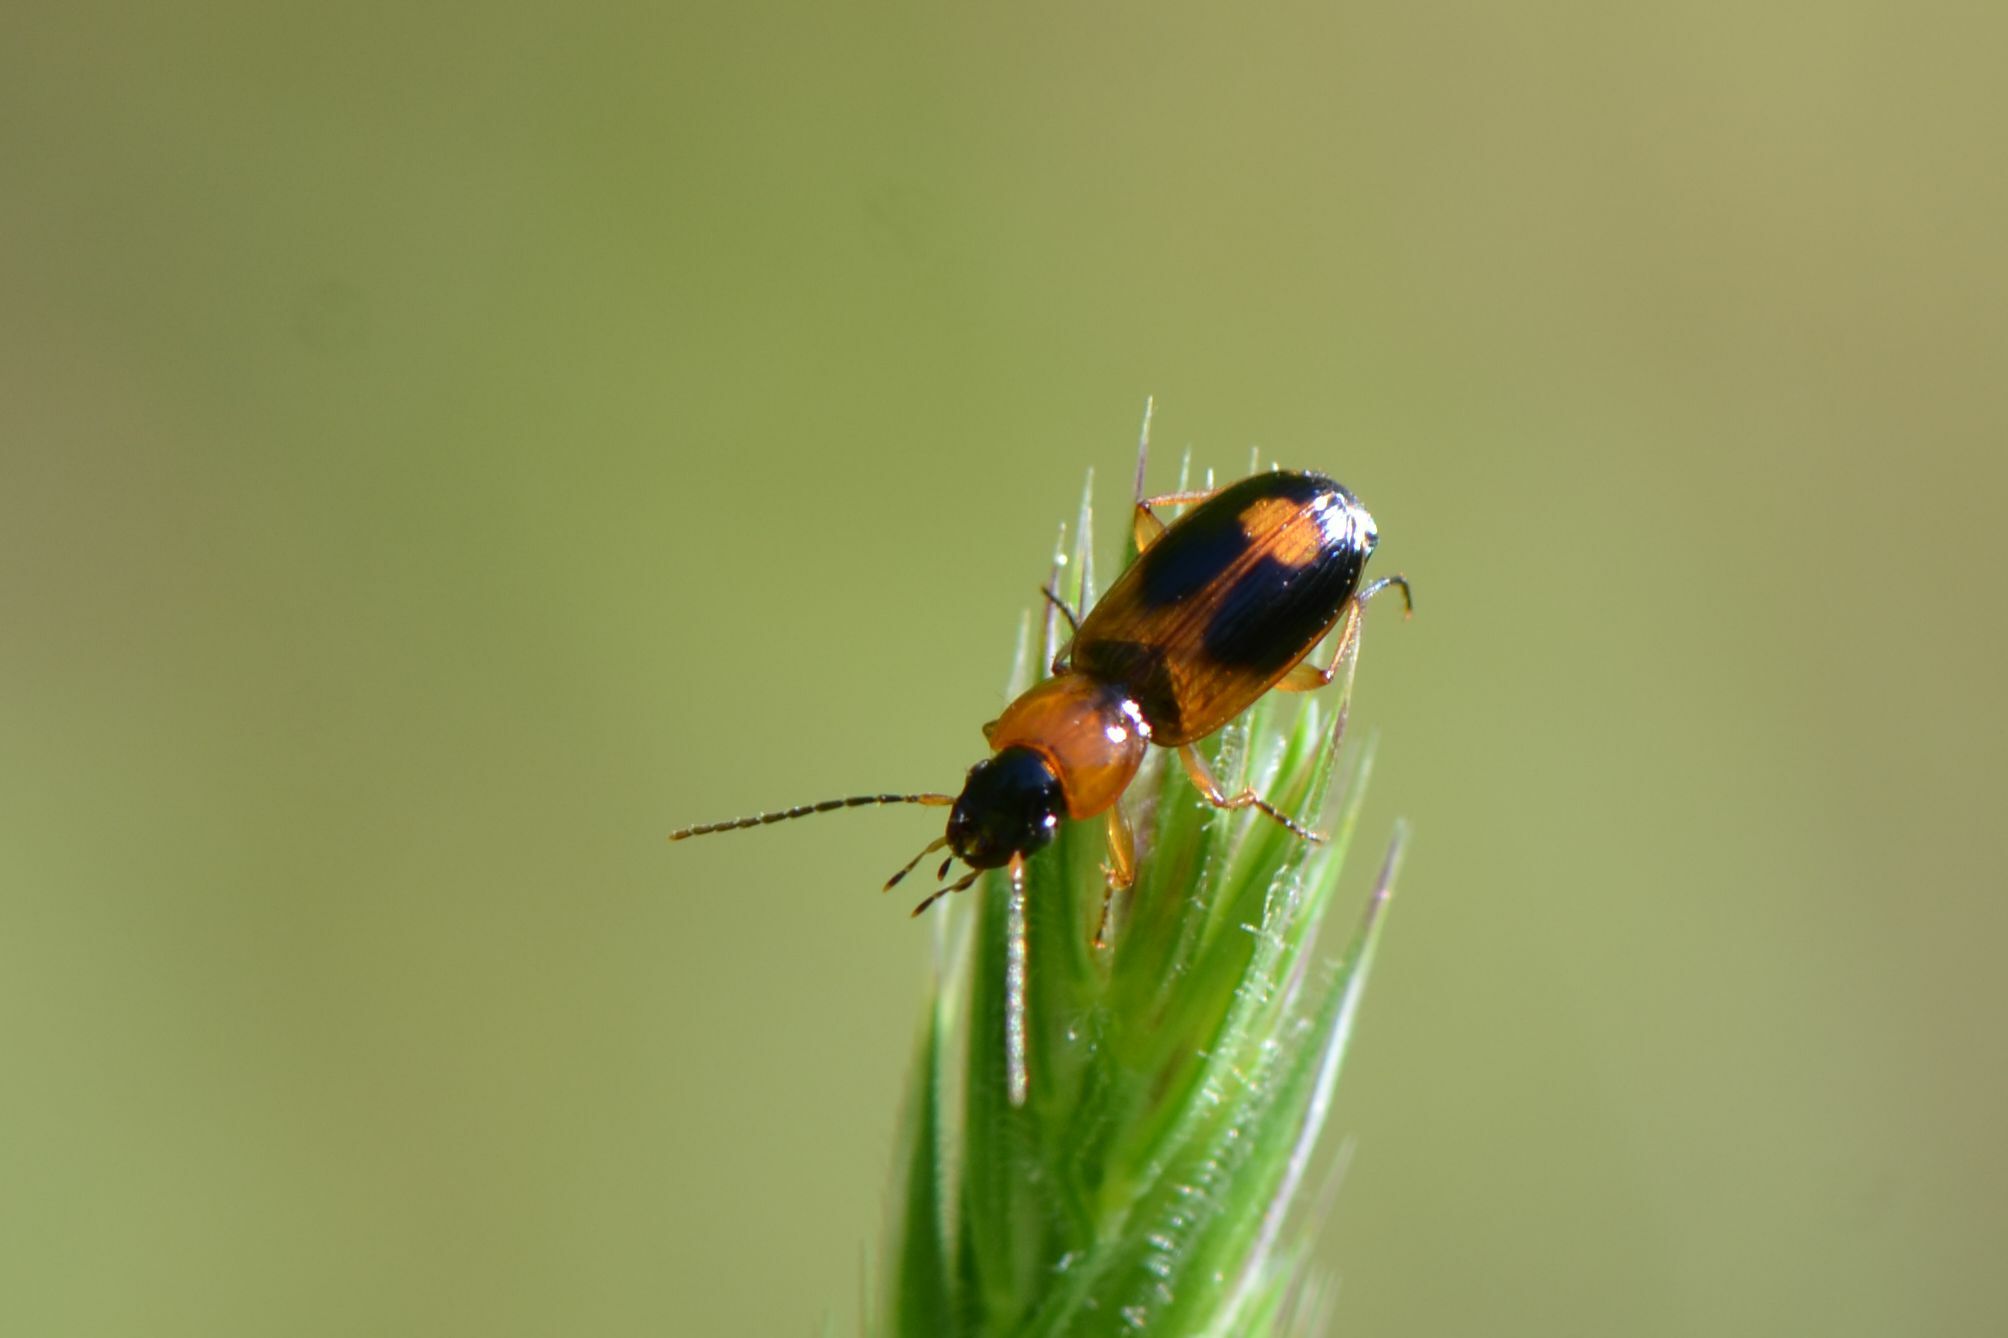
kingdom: Animalia
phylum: Arthropoda
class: Insecta
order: Coleoptera
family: Carabidae
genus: Badister
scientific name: Badister bullatus
